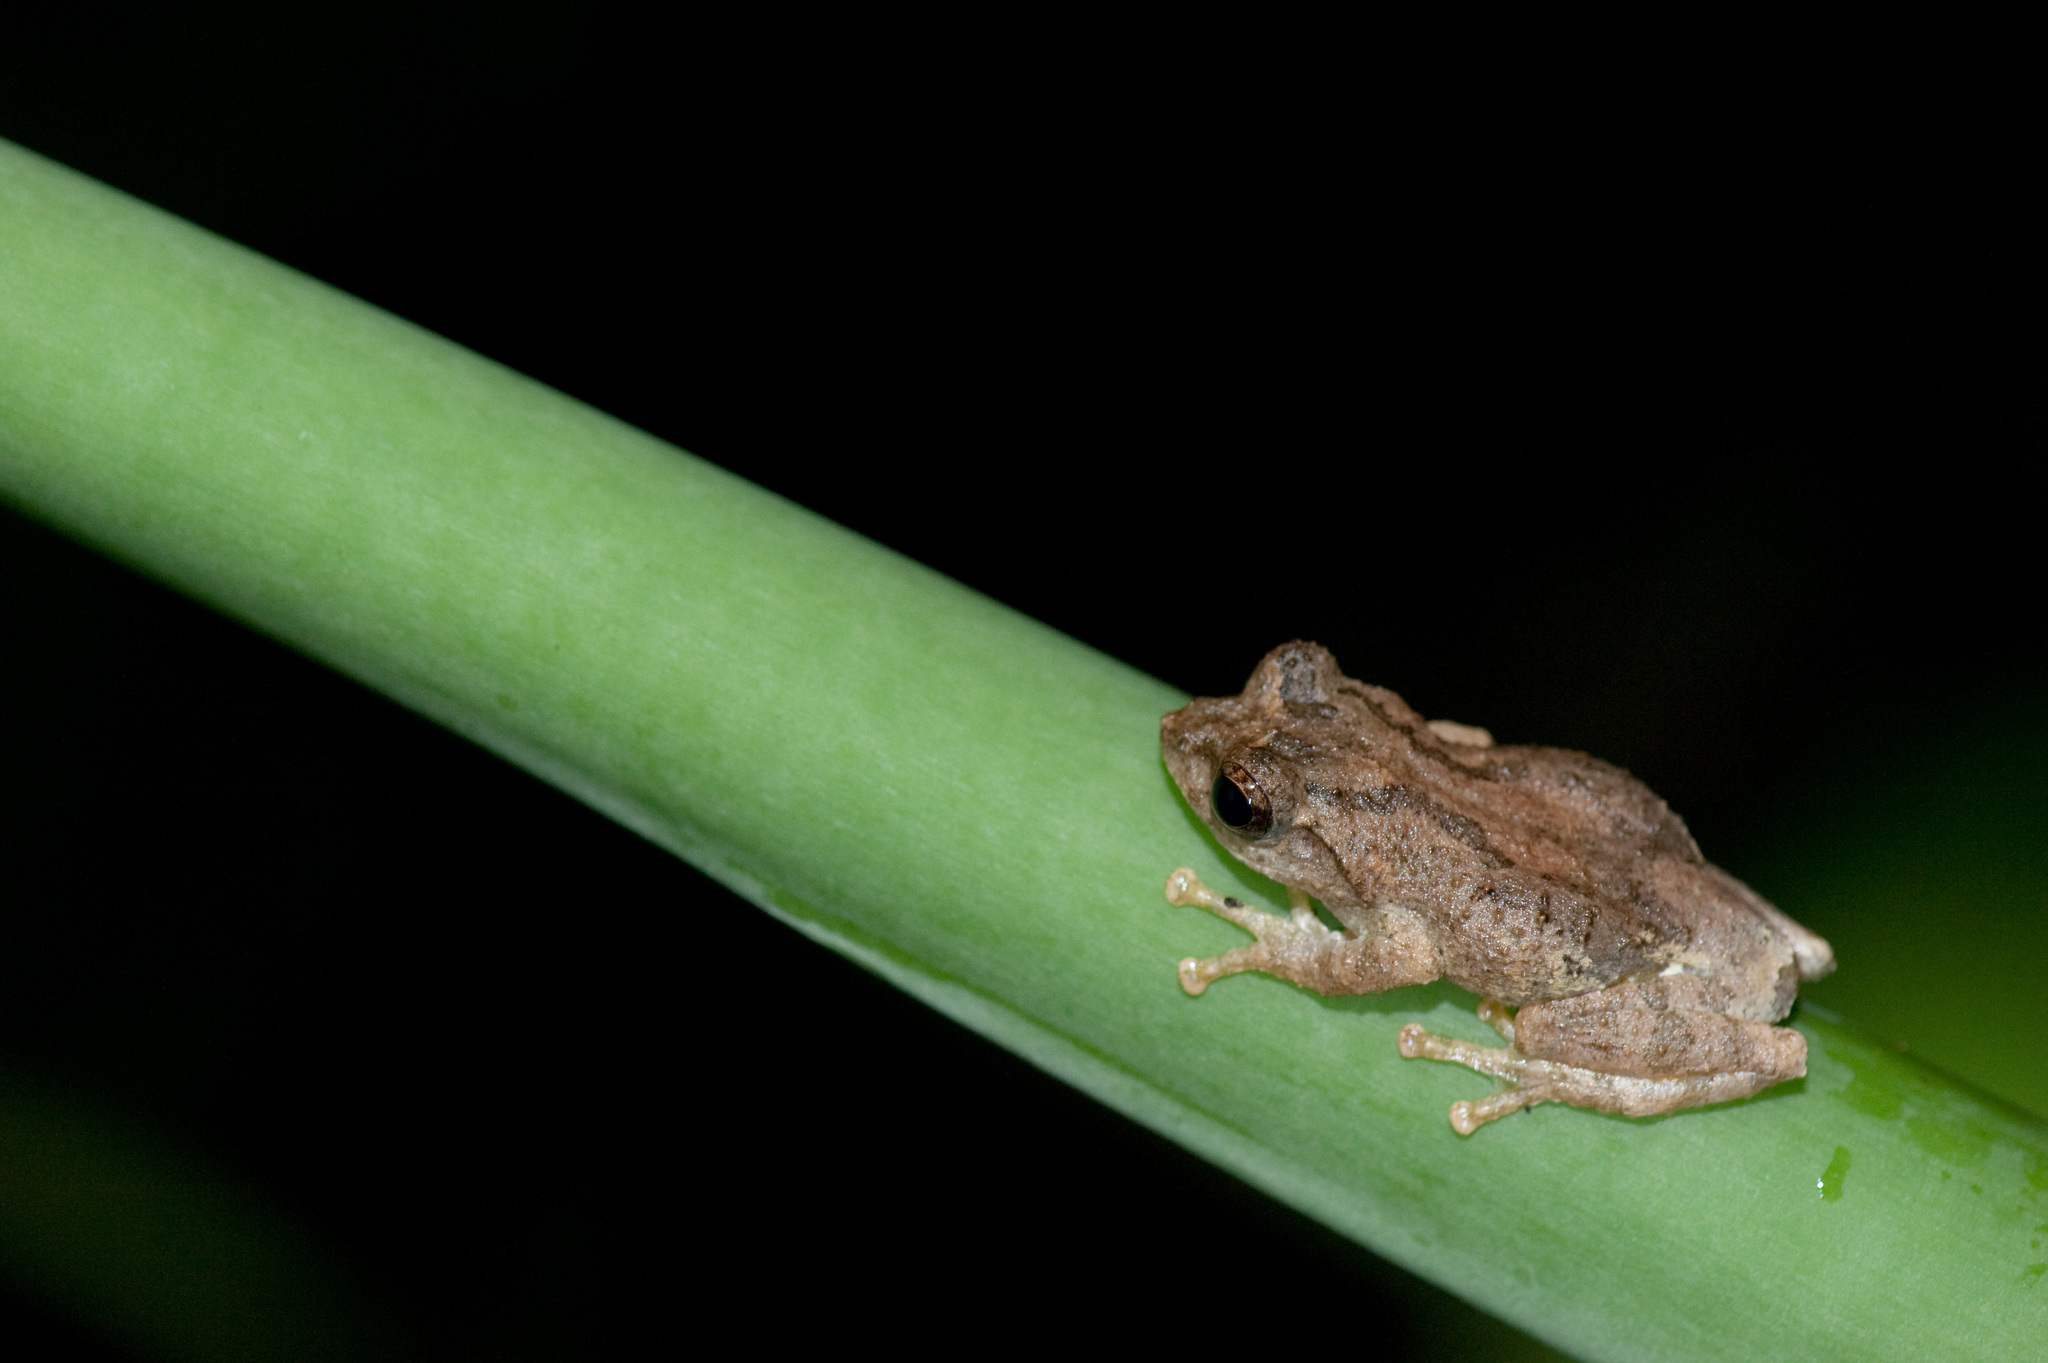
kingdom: Animalia
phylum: Chordata
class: Amphibia
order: Anura
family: Rhacophoridae
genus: Kurixalus
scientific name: Kurixalus idiootocus
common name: Temple treefrog
